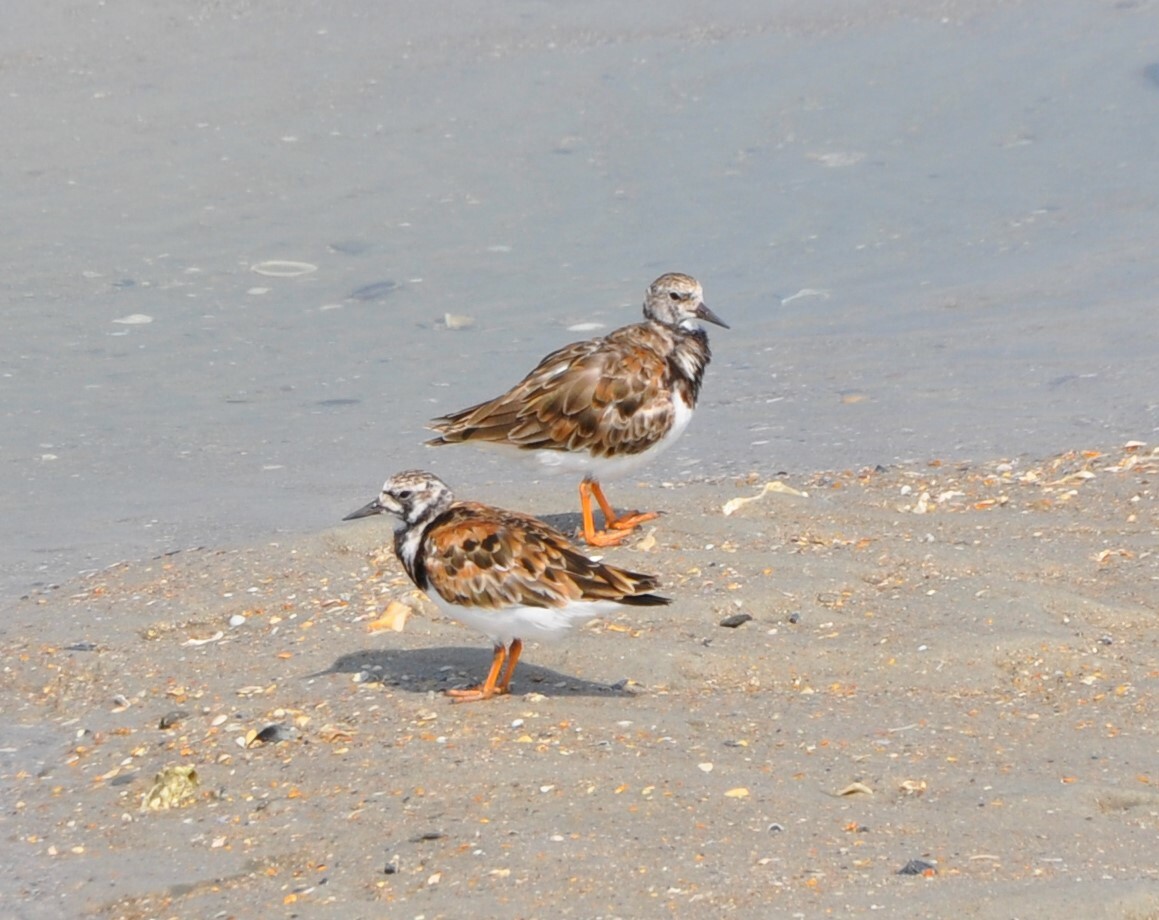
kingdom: Animalia
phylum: Chordata
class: Aves
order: Charadriiformes
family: Scolopacidae
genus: Arenaria
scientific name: Arenaria interpres
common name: Ruddy turnstone
